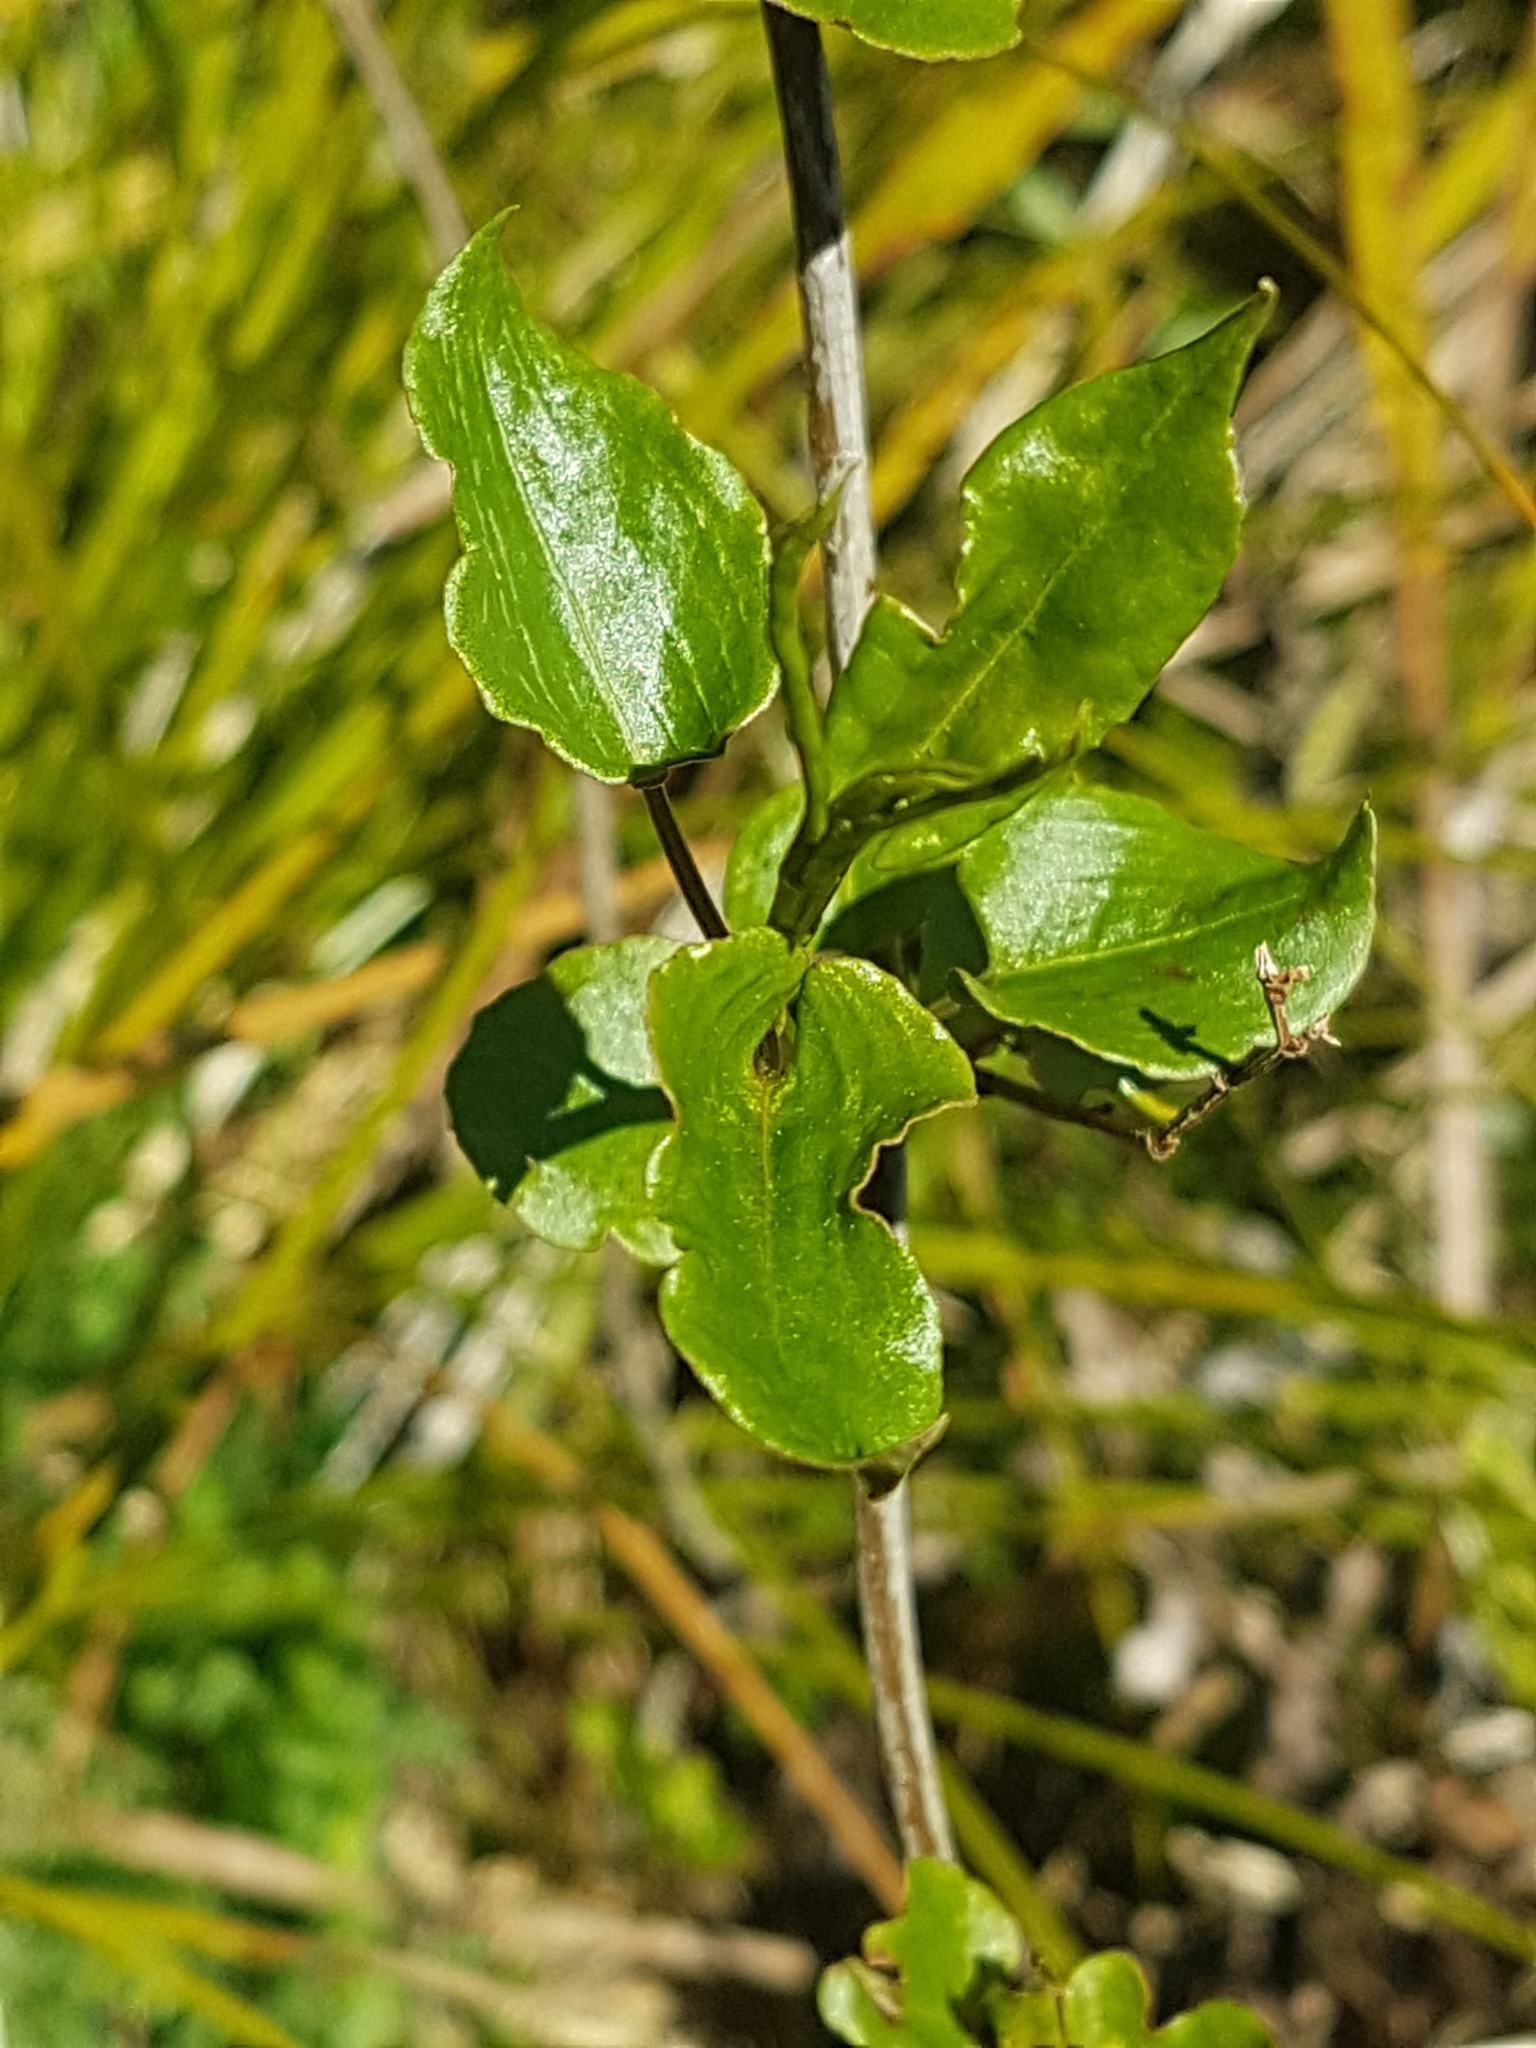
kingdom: Plantae
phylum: Tracheophyta
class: Magnoliopsida
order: Caryophyllales
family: Polygonaceae
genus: Muehlenbeckia
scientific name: Muehlenbeckia australis
